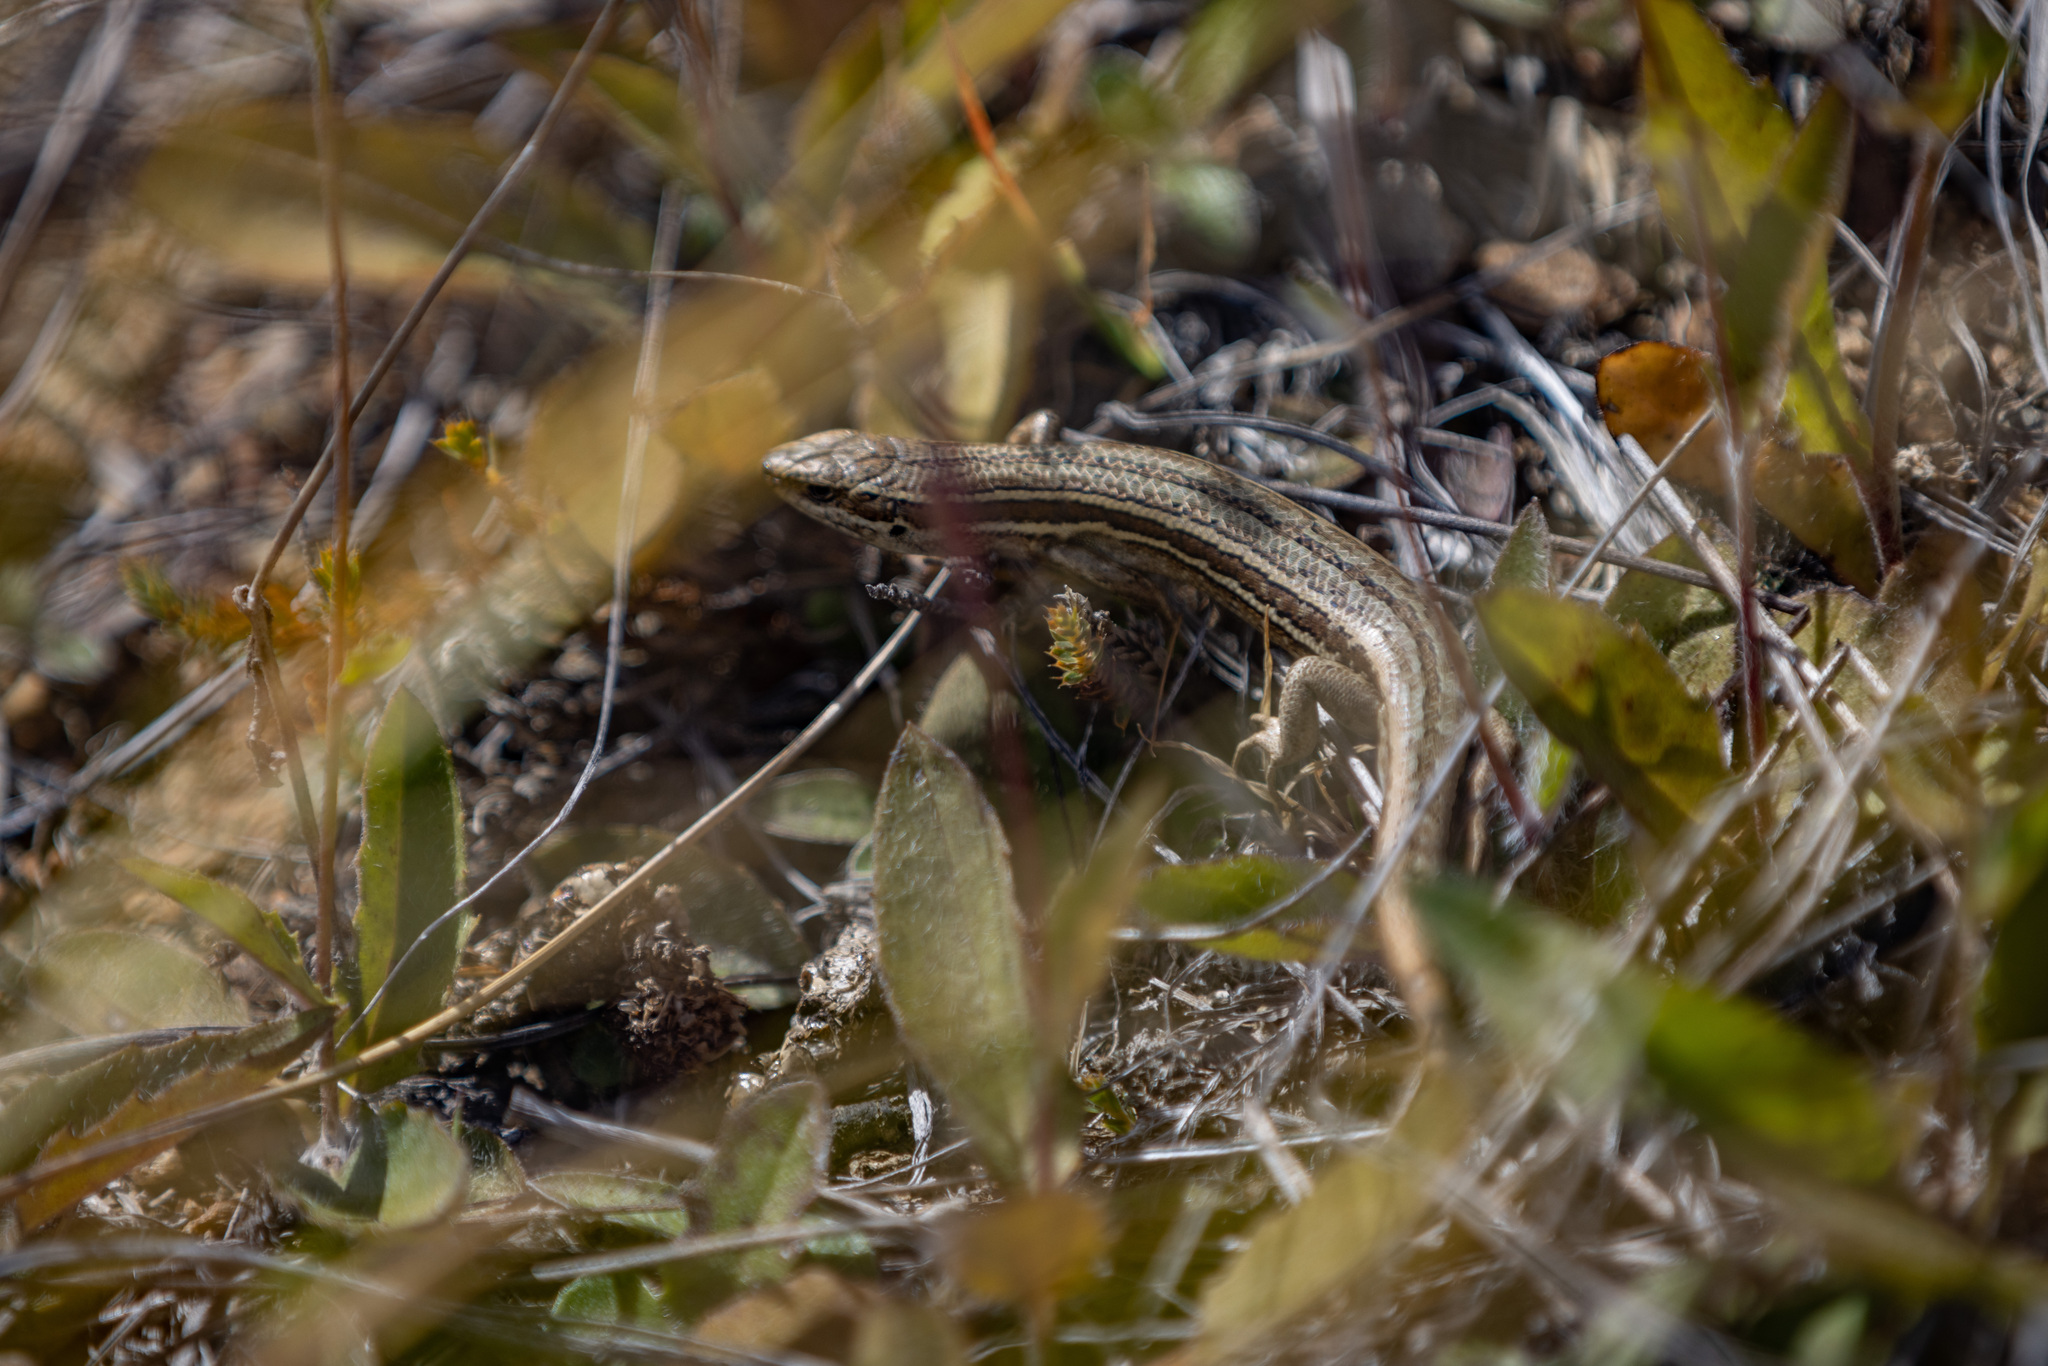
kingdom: Animalia
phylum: Chordata
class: Squamata
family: Scincidae
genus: Oligosoma
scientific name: Oligosoma maccanni
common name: Mccann’s skink
